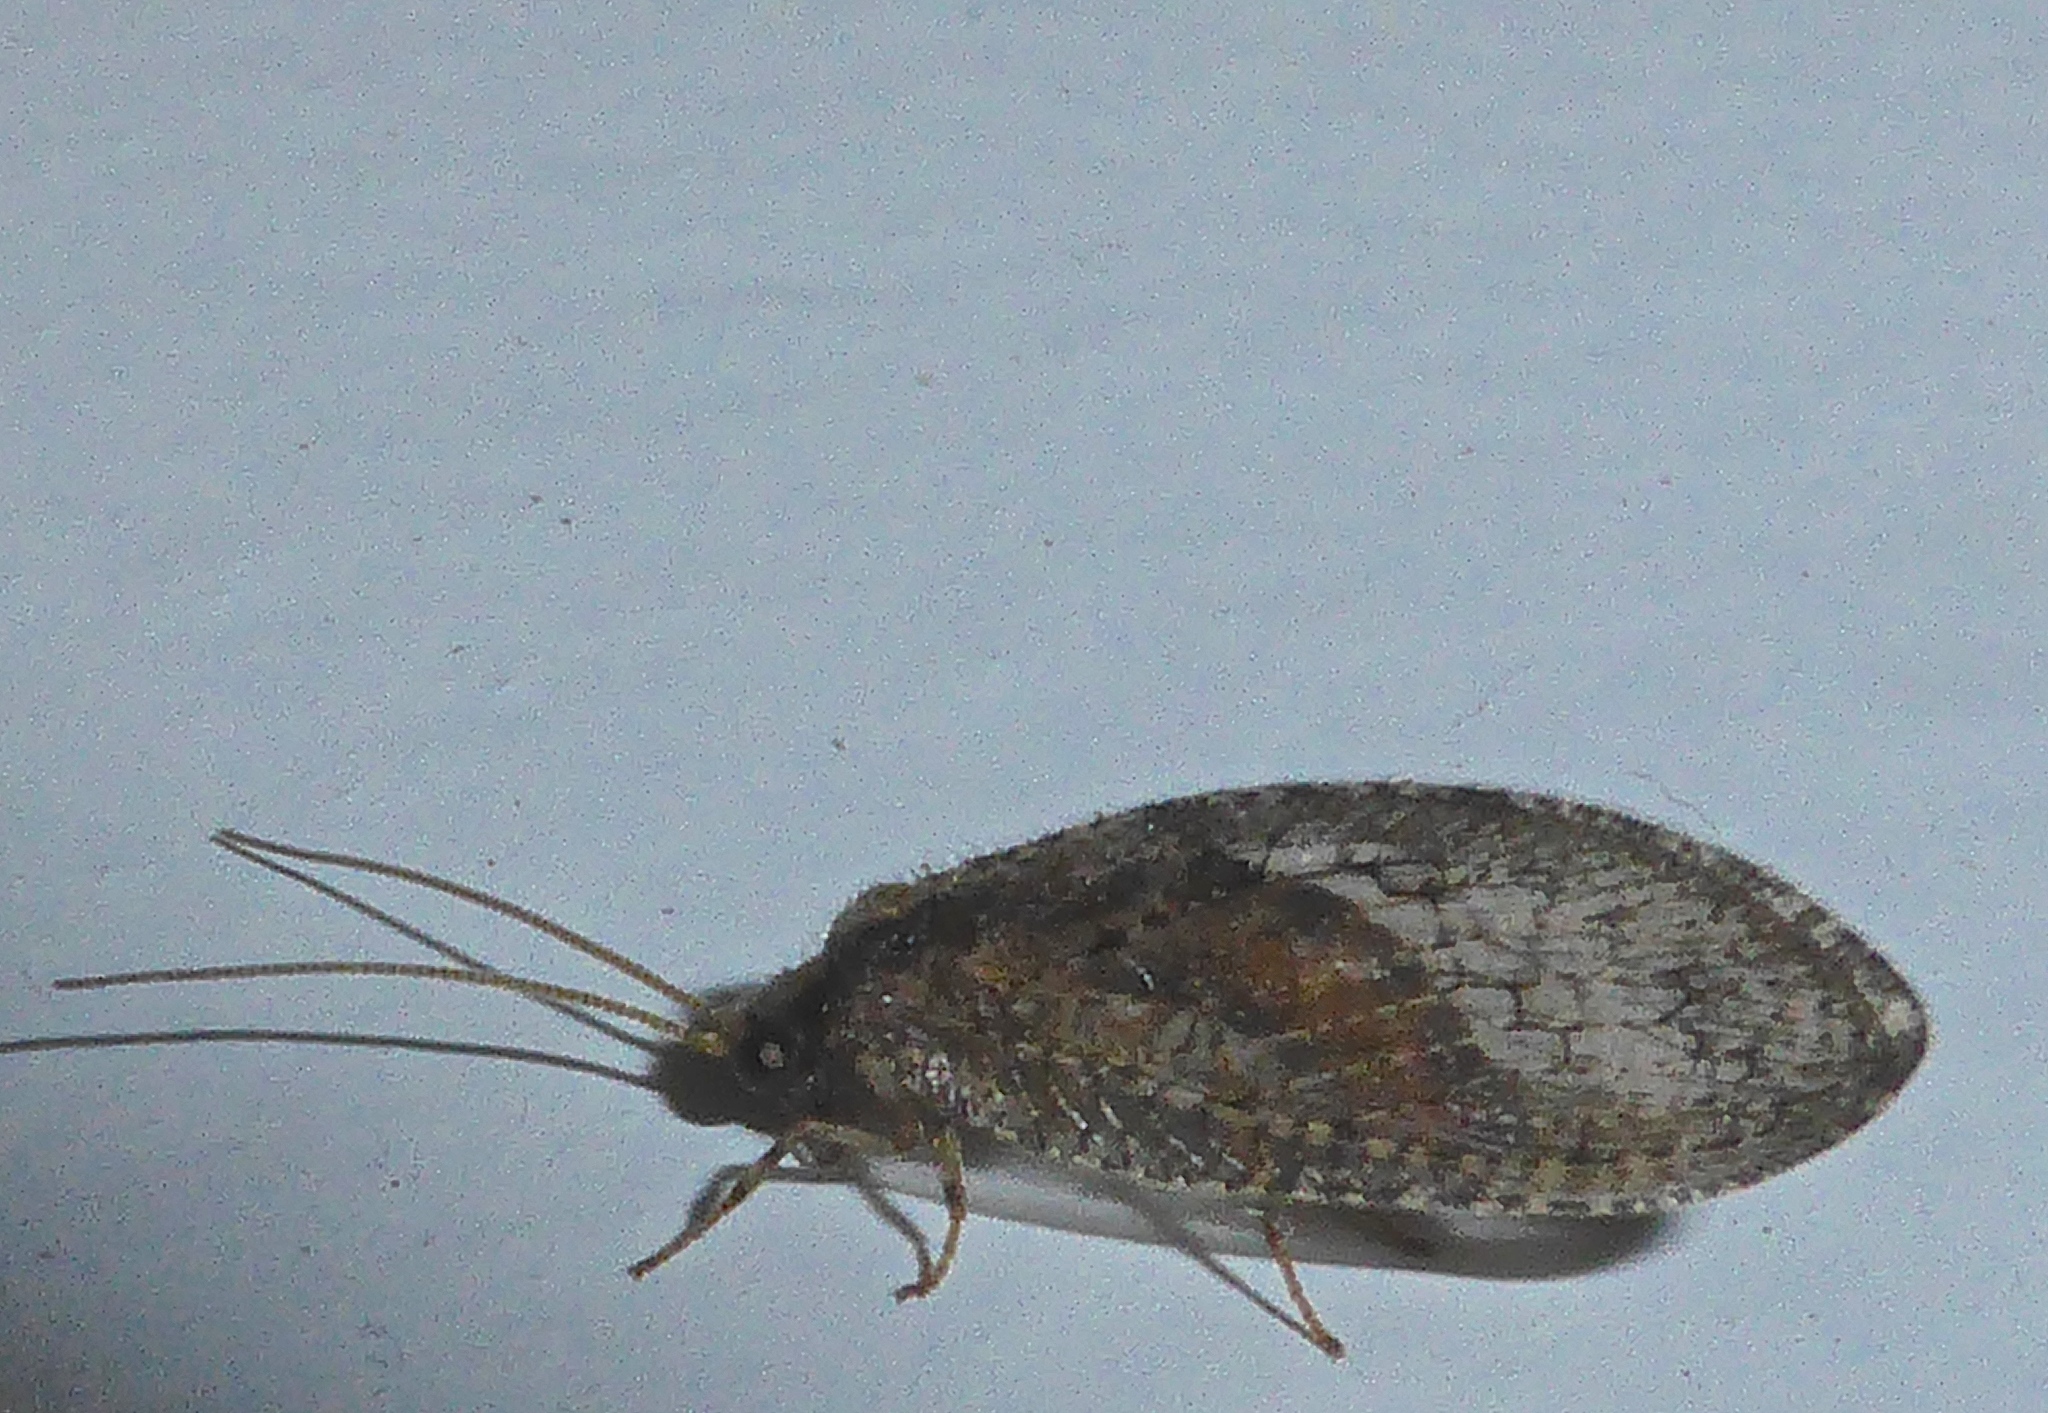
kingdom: Animalia
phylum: Arthropoda
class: Insecta
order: Neuroptera
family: Hemerobiidae
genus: Wesmaelius
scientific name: Wesmaelius subnebulosus
